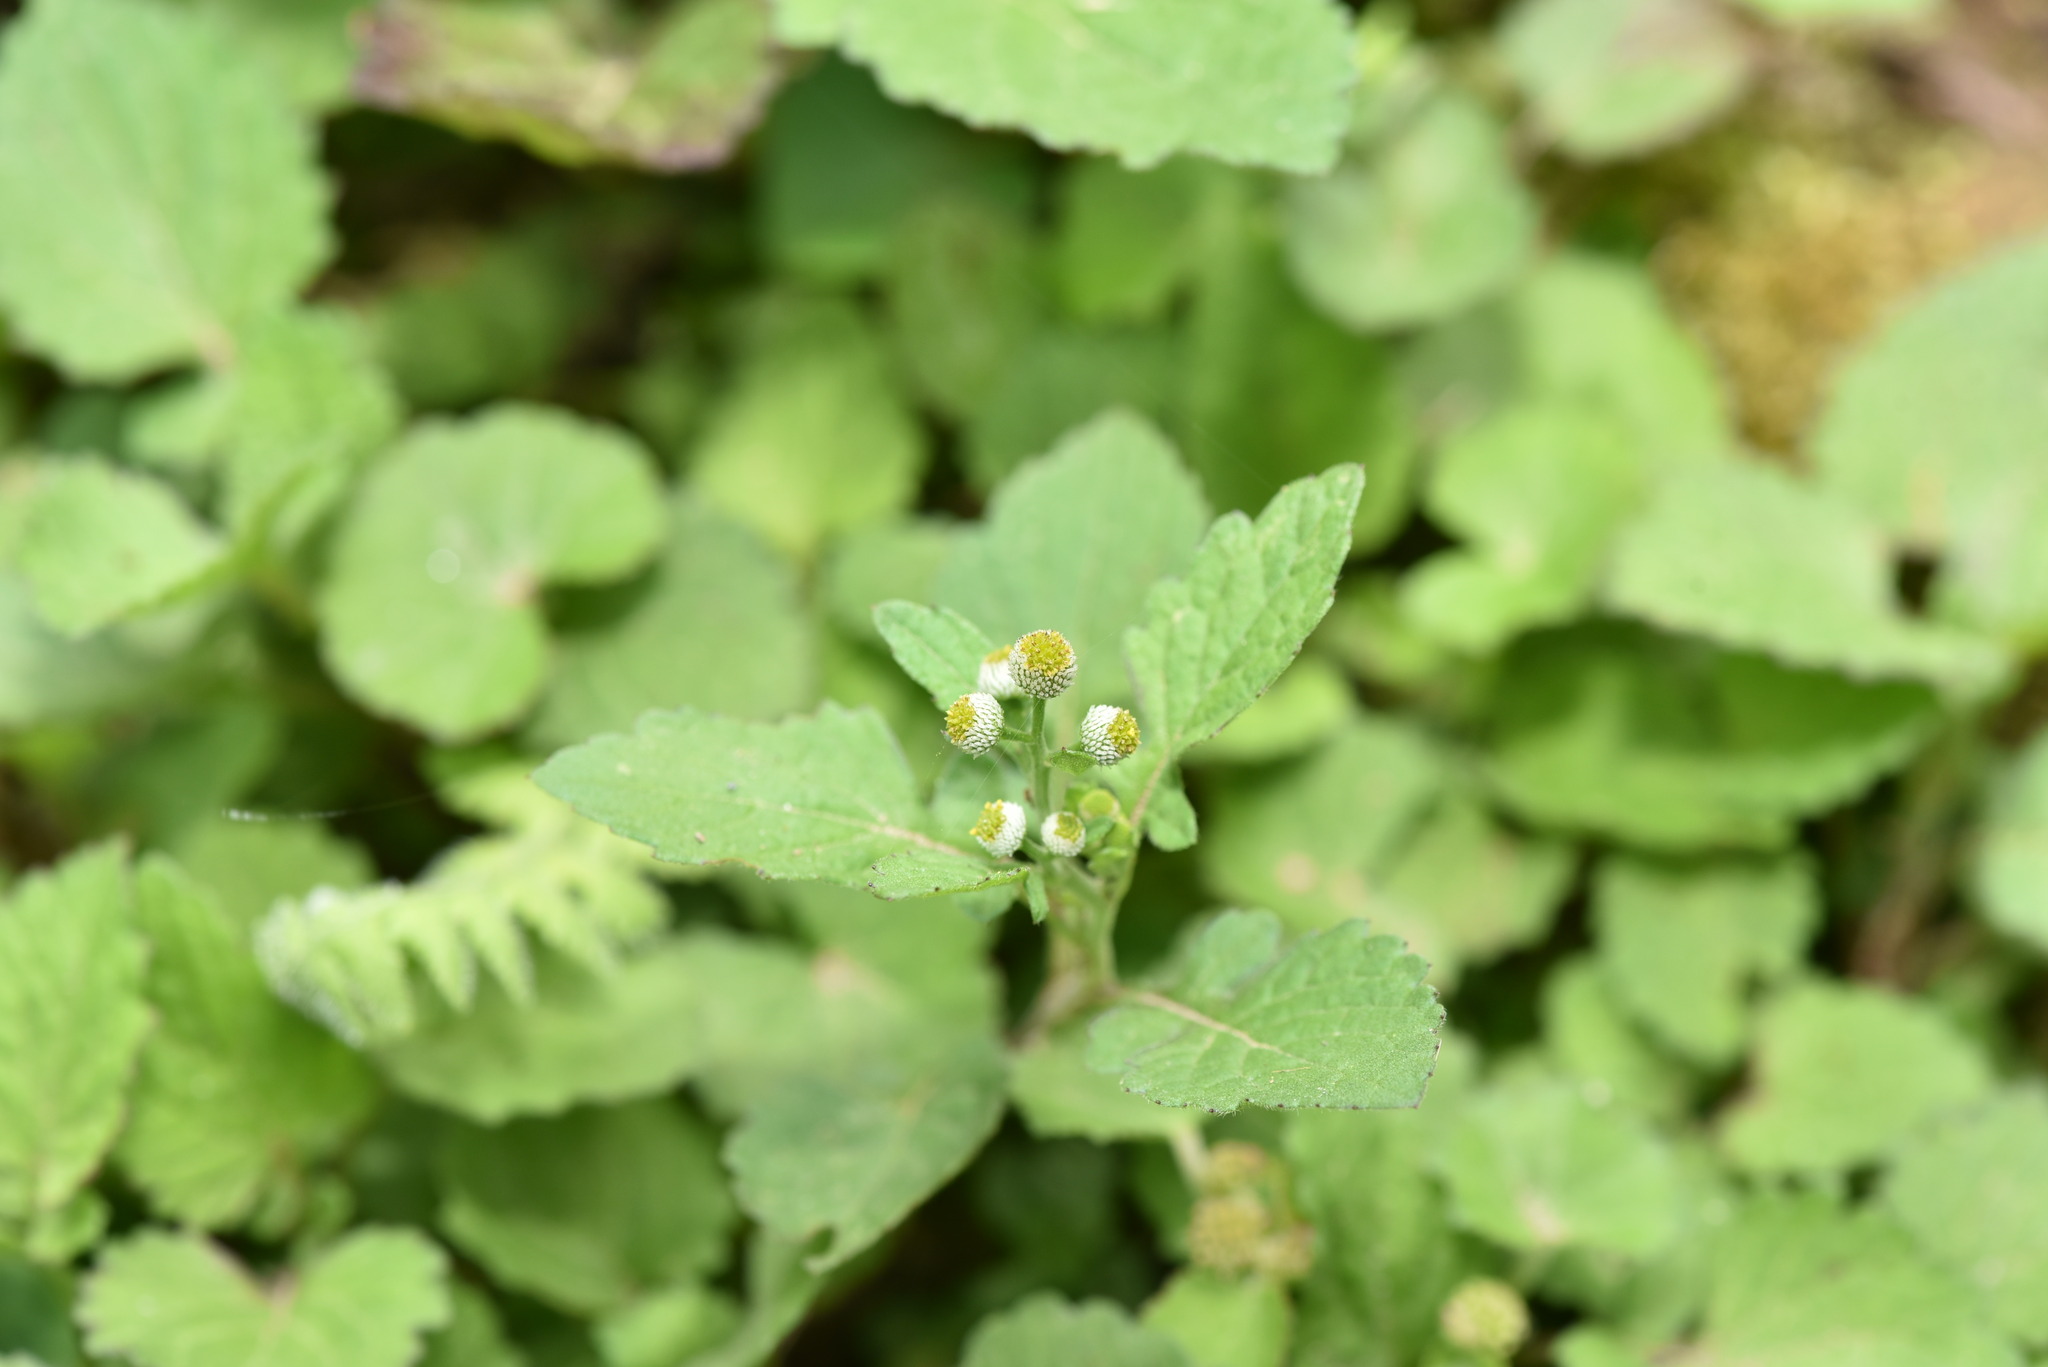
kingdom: Plantae
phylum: Tracheophyta
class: Magnoliopsida
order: Asterales
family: Asteraceae
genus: Dichrocephala
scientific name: Dichrocephala integrifolia
